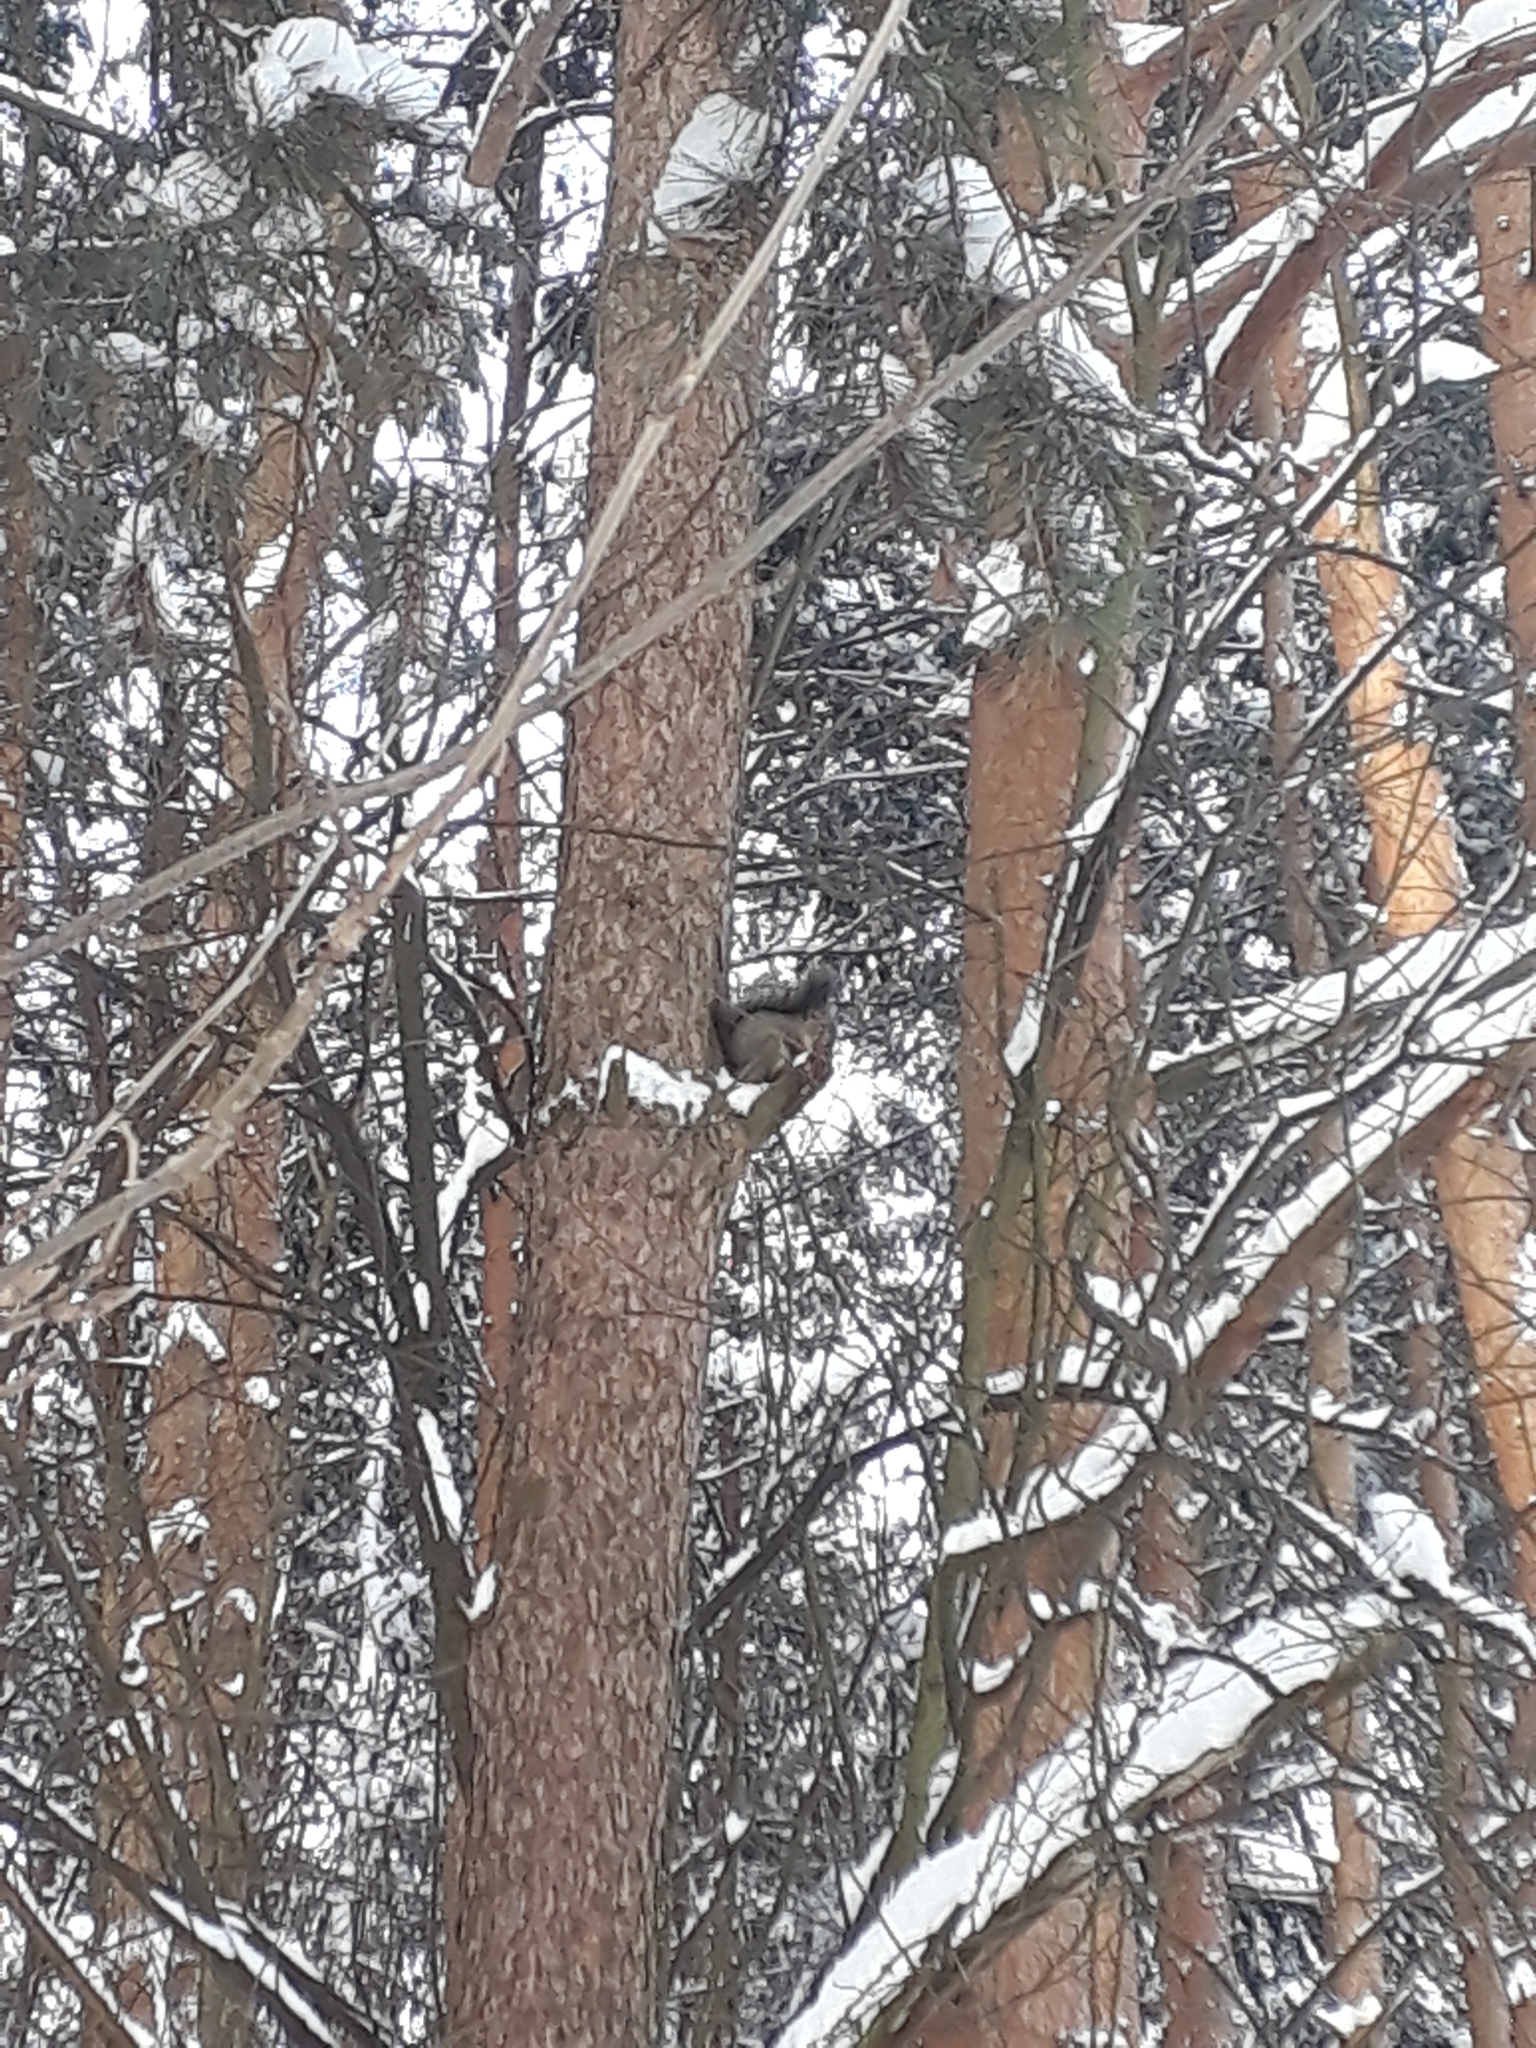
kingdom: Animalia
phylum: Chordata
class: Mammalia
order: Rodentia
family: Sciuridae
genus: Sciurus
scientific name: Sciurus vulgaris
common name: Eurasian red squirrel
